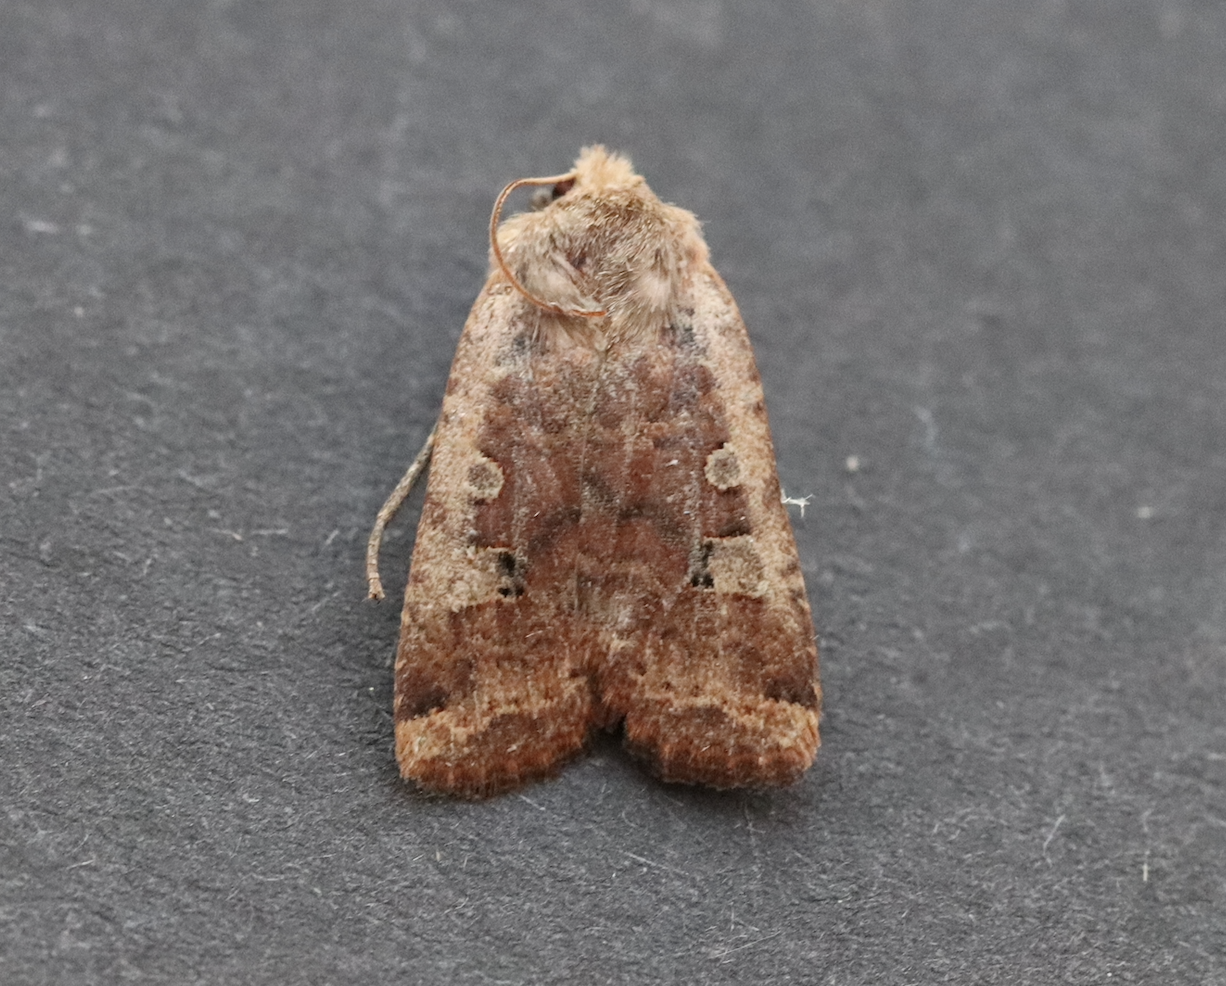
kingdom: Animalia
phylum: Arthropoda
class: Insecta
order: Lepidoptera
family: Noctuidae
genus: Conistra
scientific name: Conistra erythrocephala
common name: Red-headed chestnut
